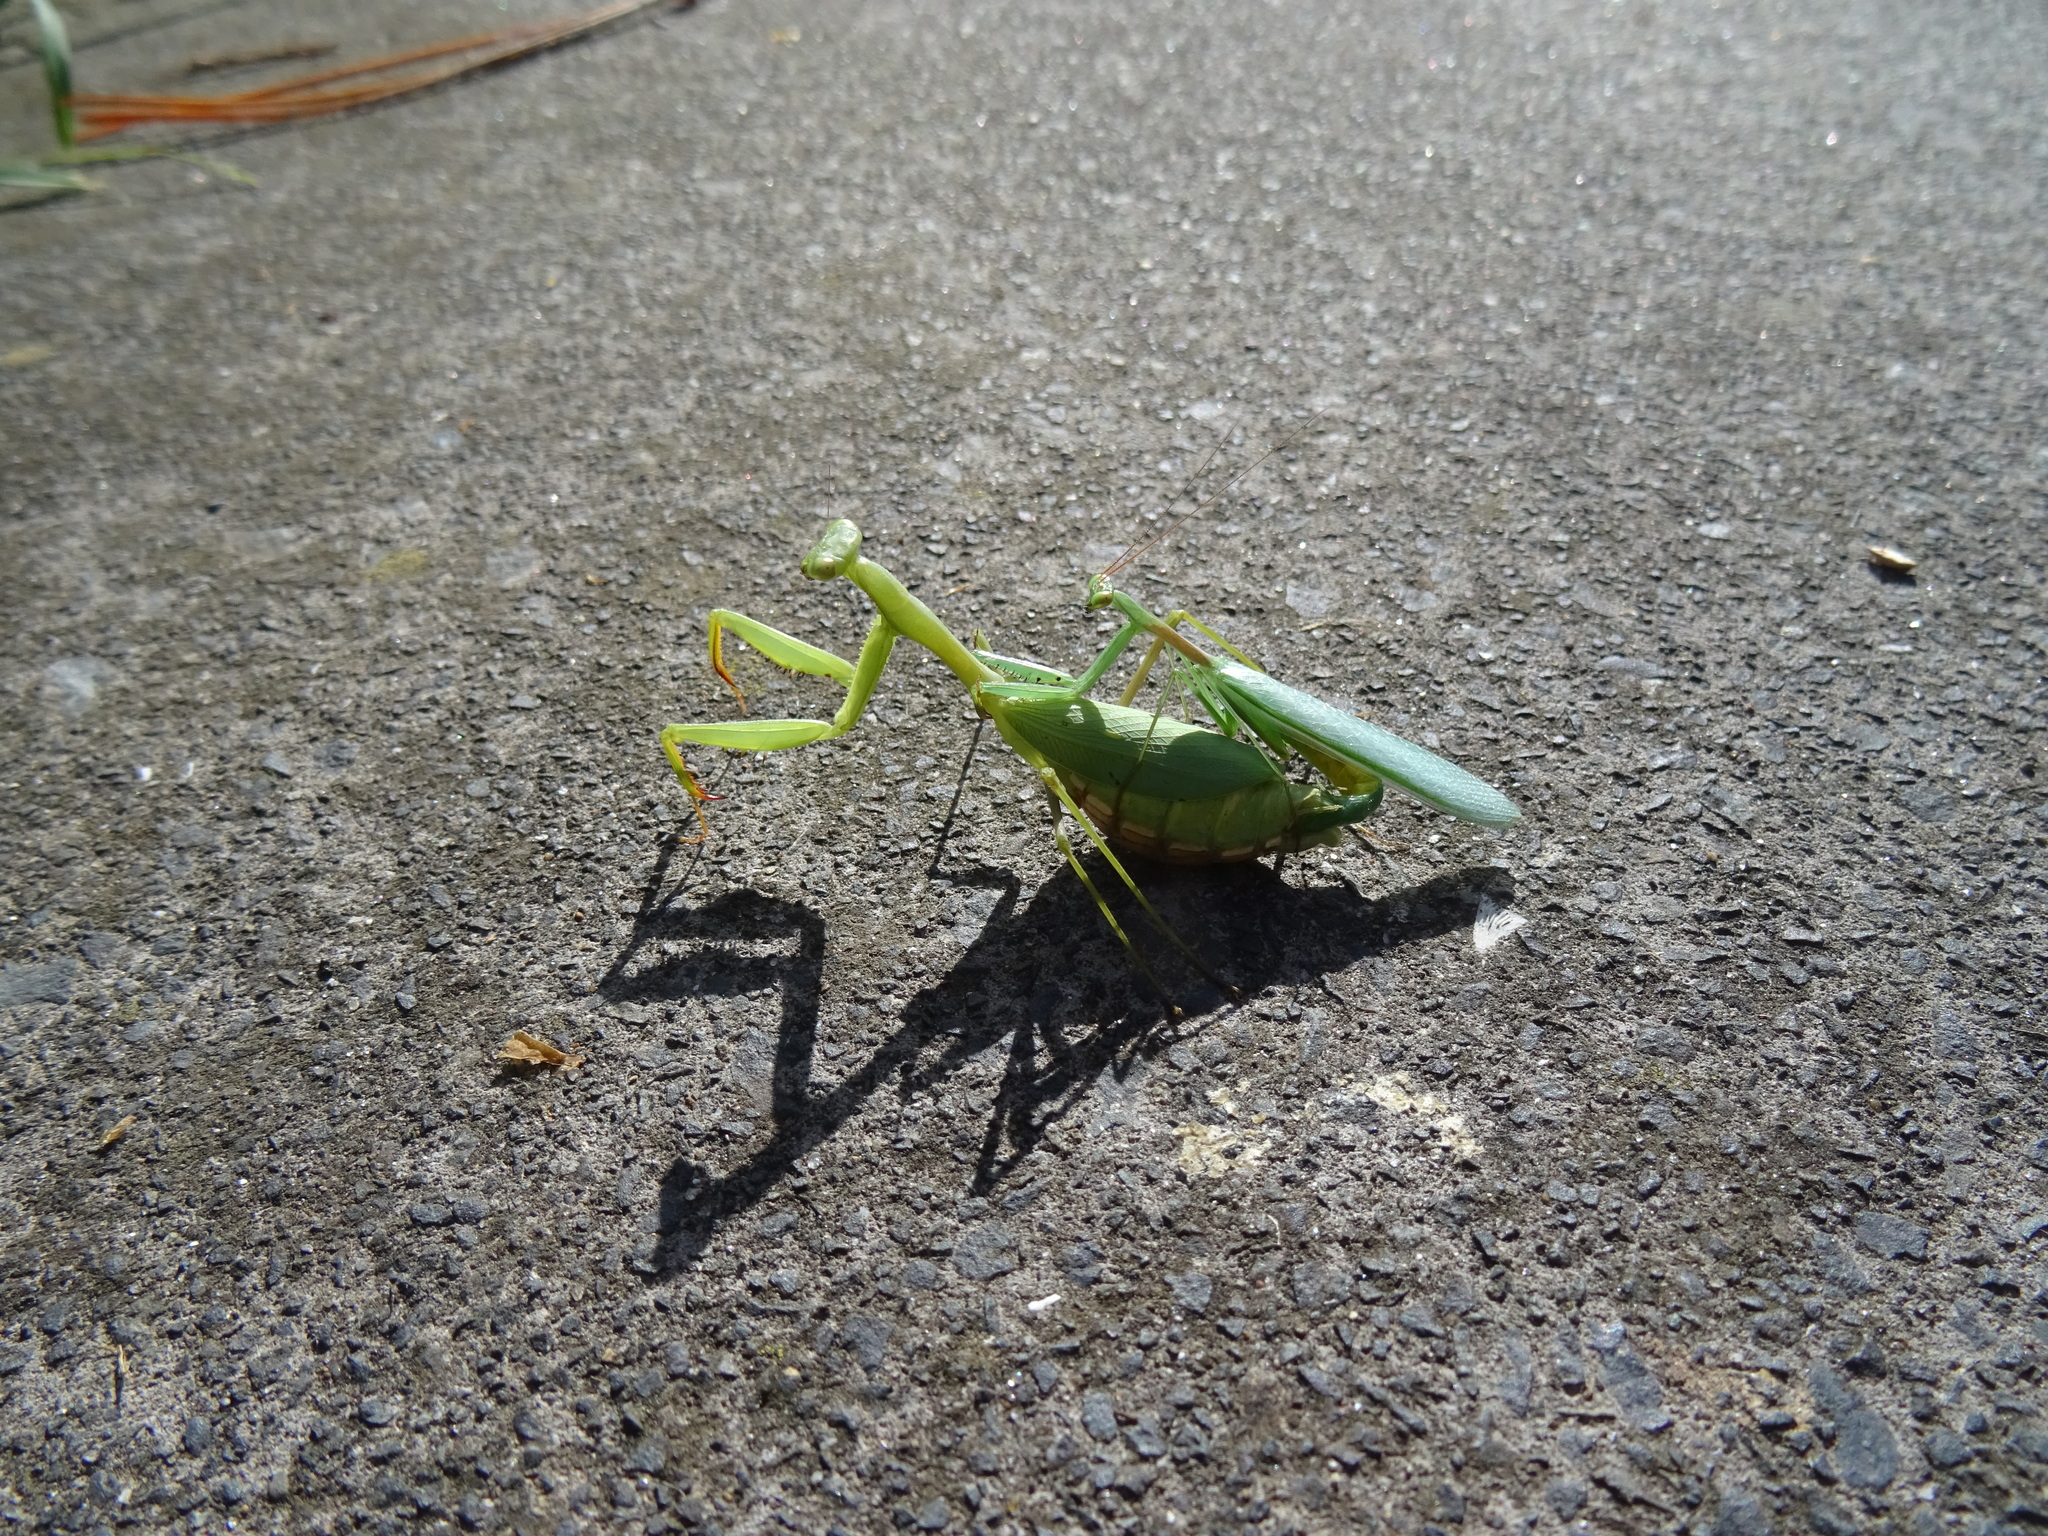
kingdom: Animalia
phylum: Arthropoda
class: Insecta
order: Mantodea
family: Miomantidae
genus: Miomantis
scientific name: Miomantis caffra
